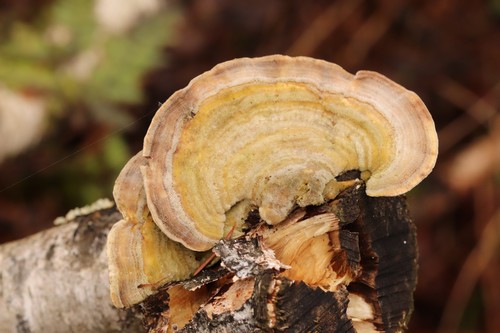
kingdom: Fungi
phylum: Basidiomycota
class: Agaricomycetes
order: Polyporales
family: Polyporaceae
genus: Lenzites
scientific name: Lenzites betulinus
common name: Birch mazegill
